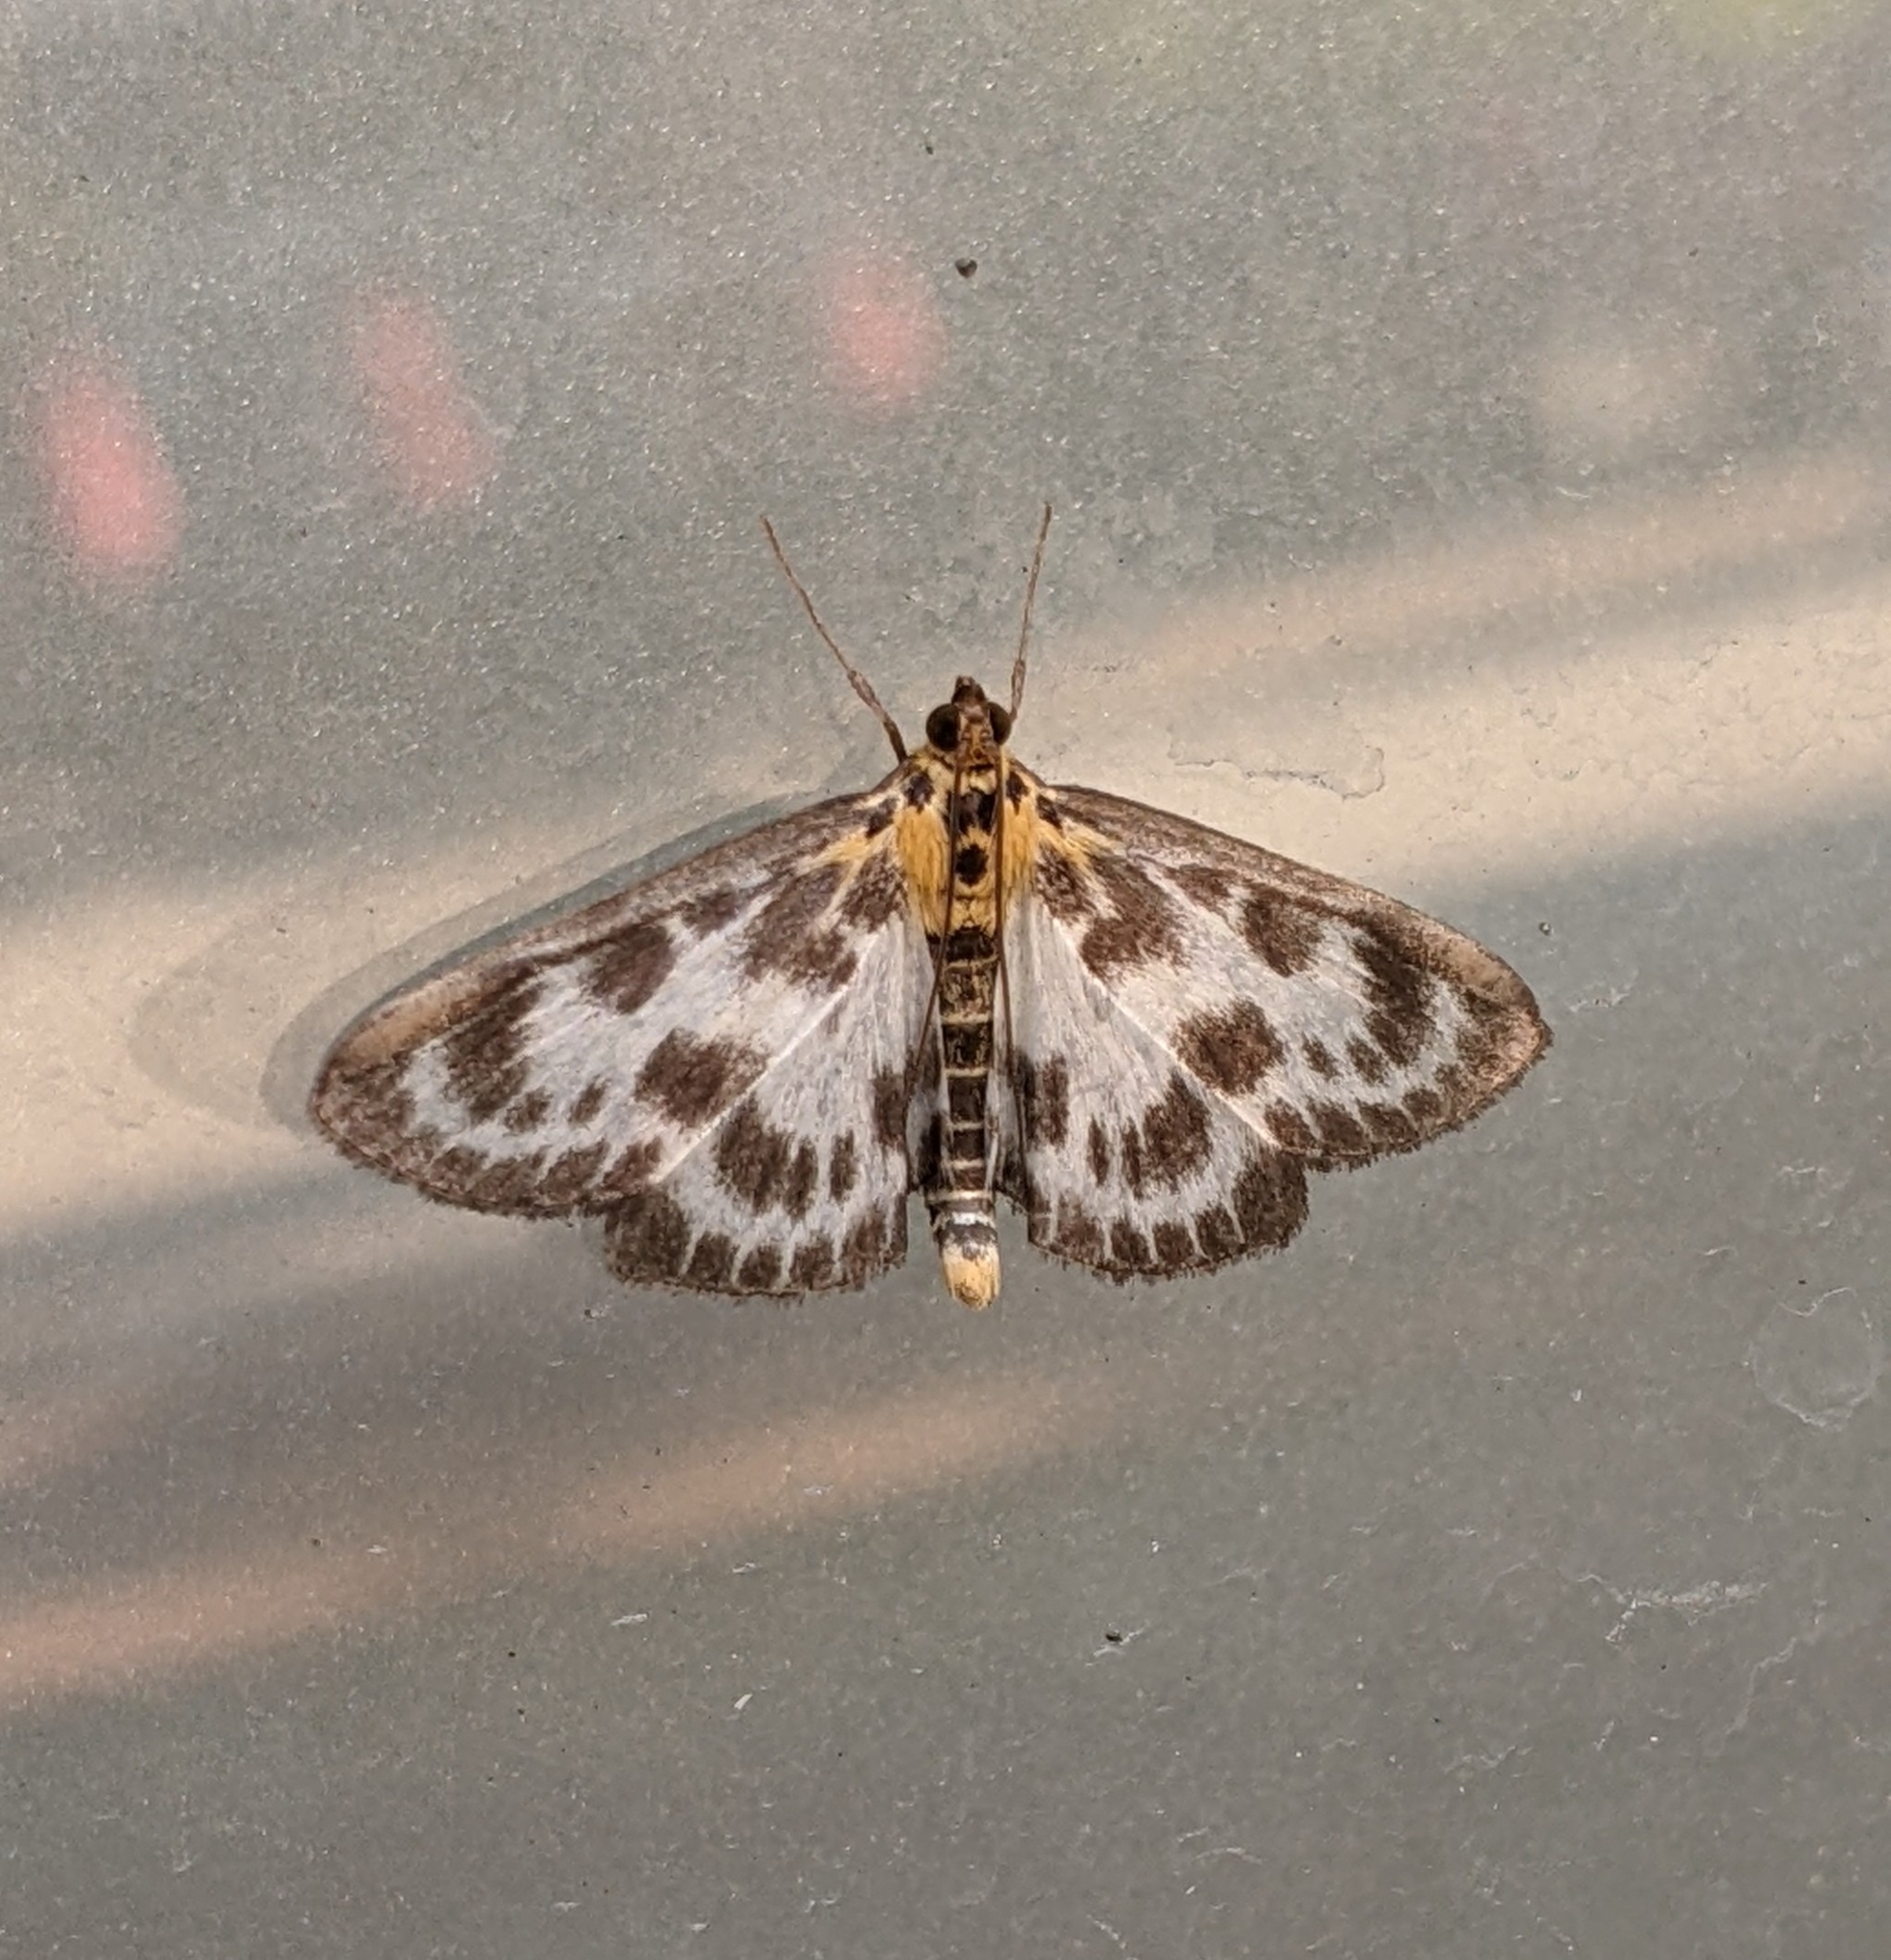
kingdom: Animalia
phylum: Arthropoda
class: Insecta
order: Lepidoptera
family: Crambidae
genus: Anania
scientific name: Anania hortulata
